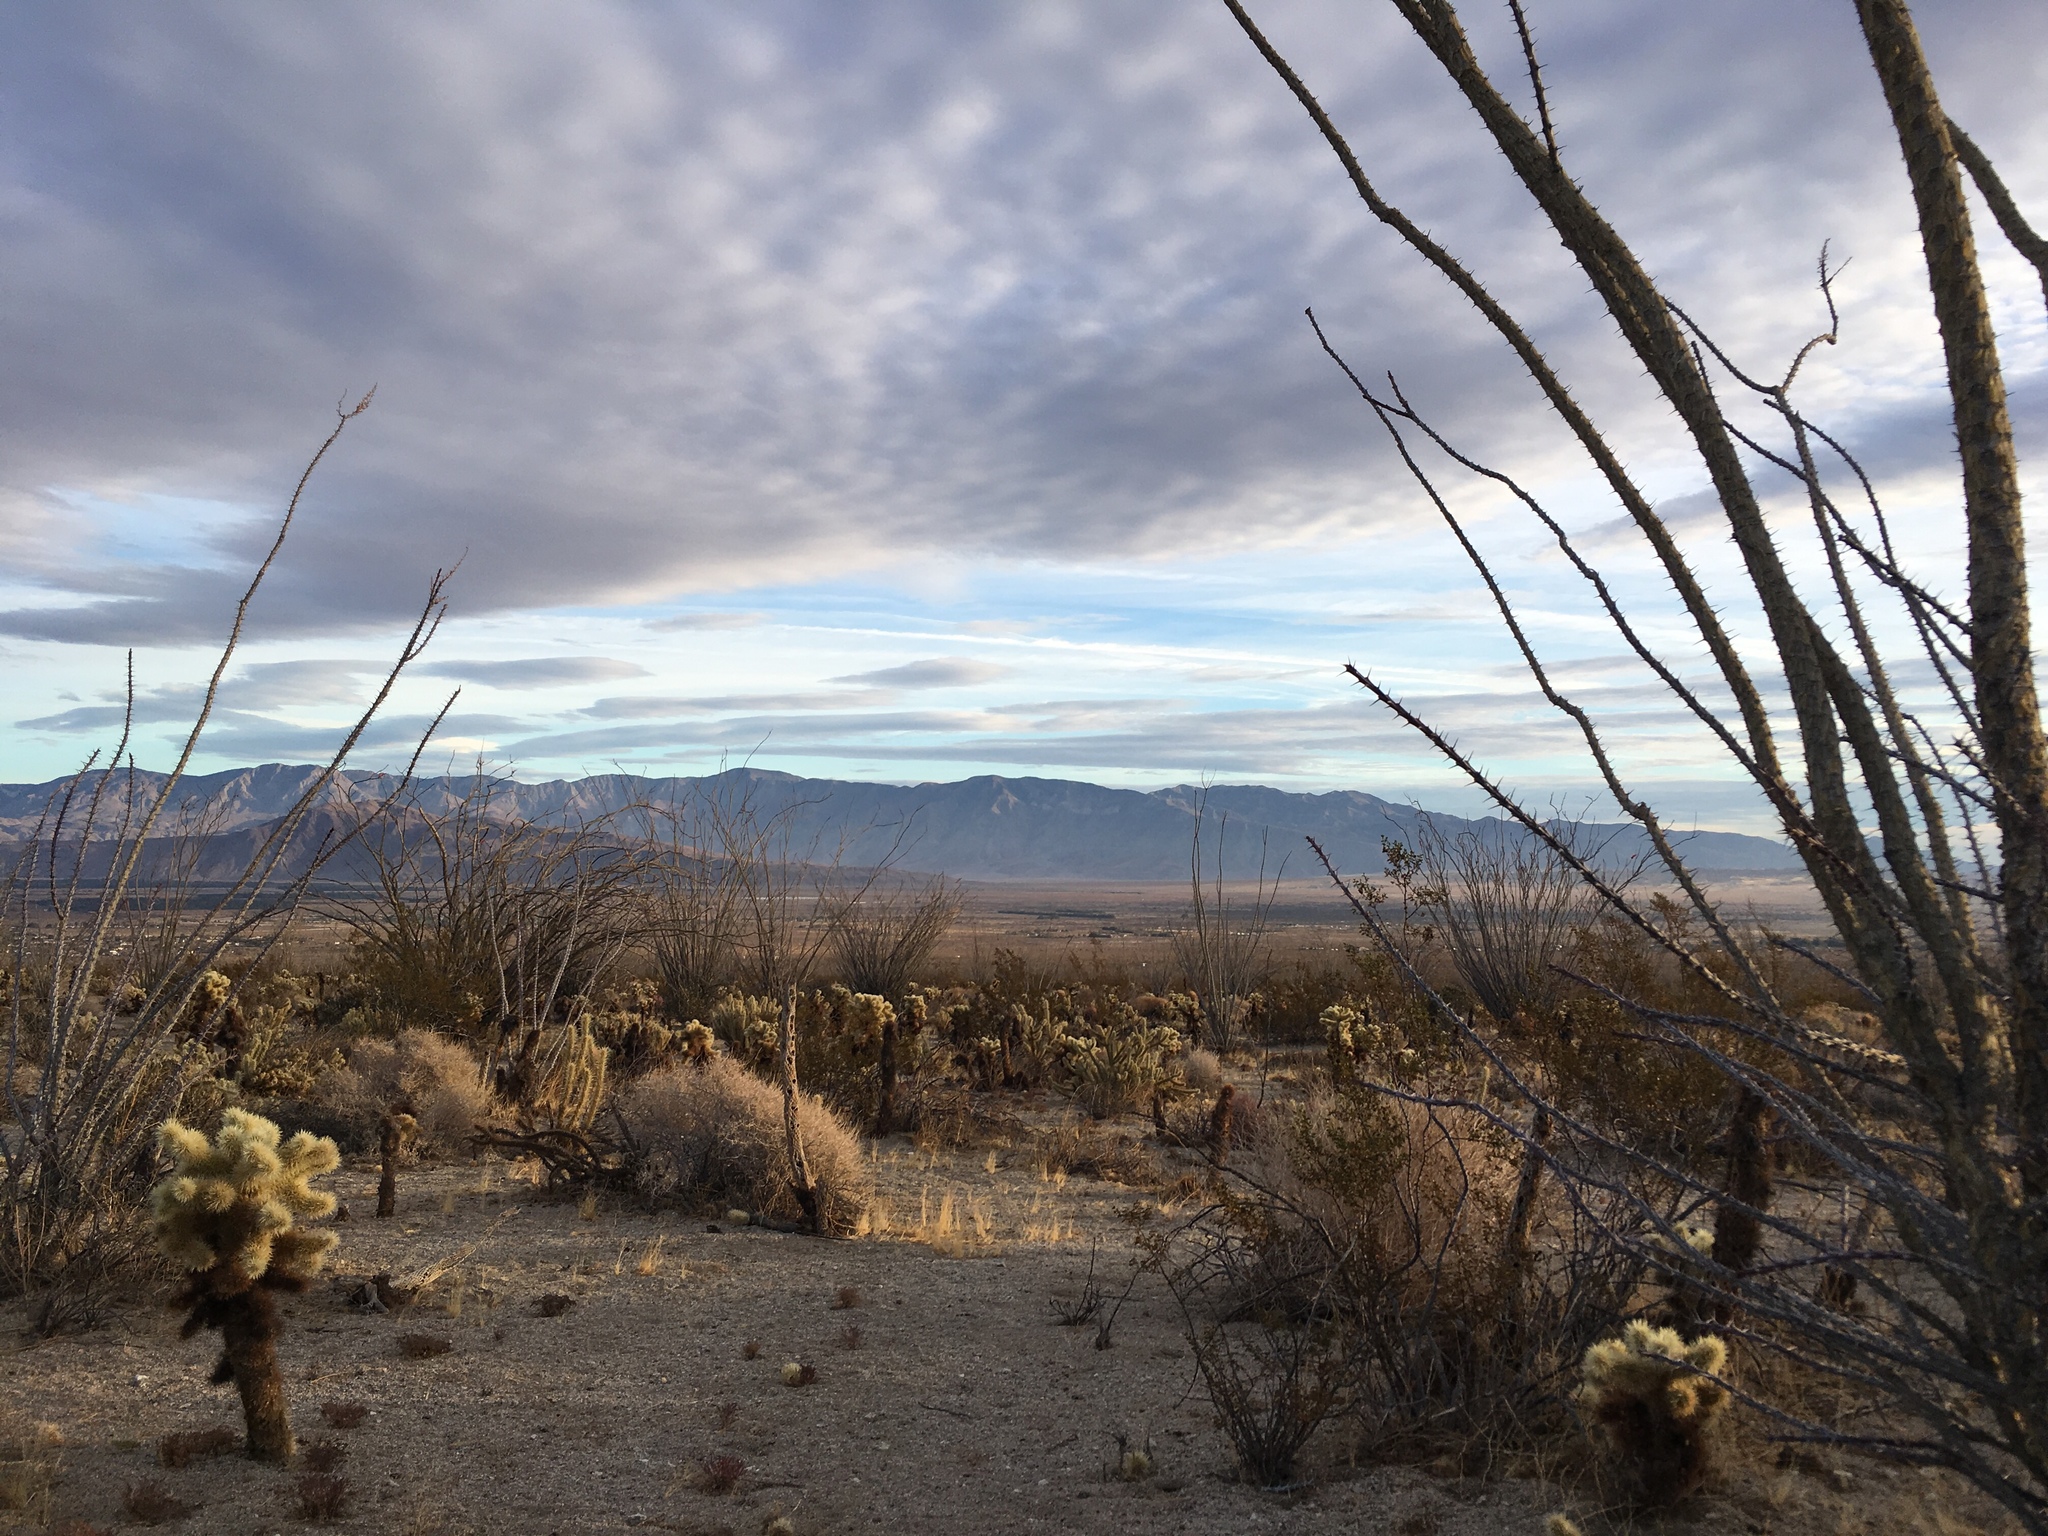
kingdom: Plantae
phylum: Tracheophyta
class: Magnoliopsida
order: Ericales
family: Fouquieriaceae
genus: Fouquieria
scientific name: Fouquieria splendens
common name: Vine-cactus
